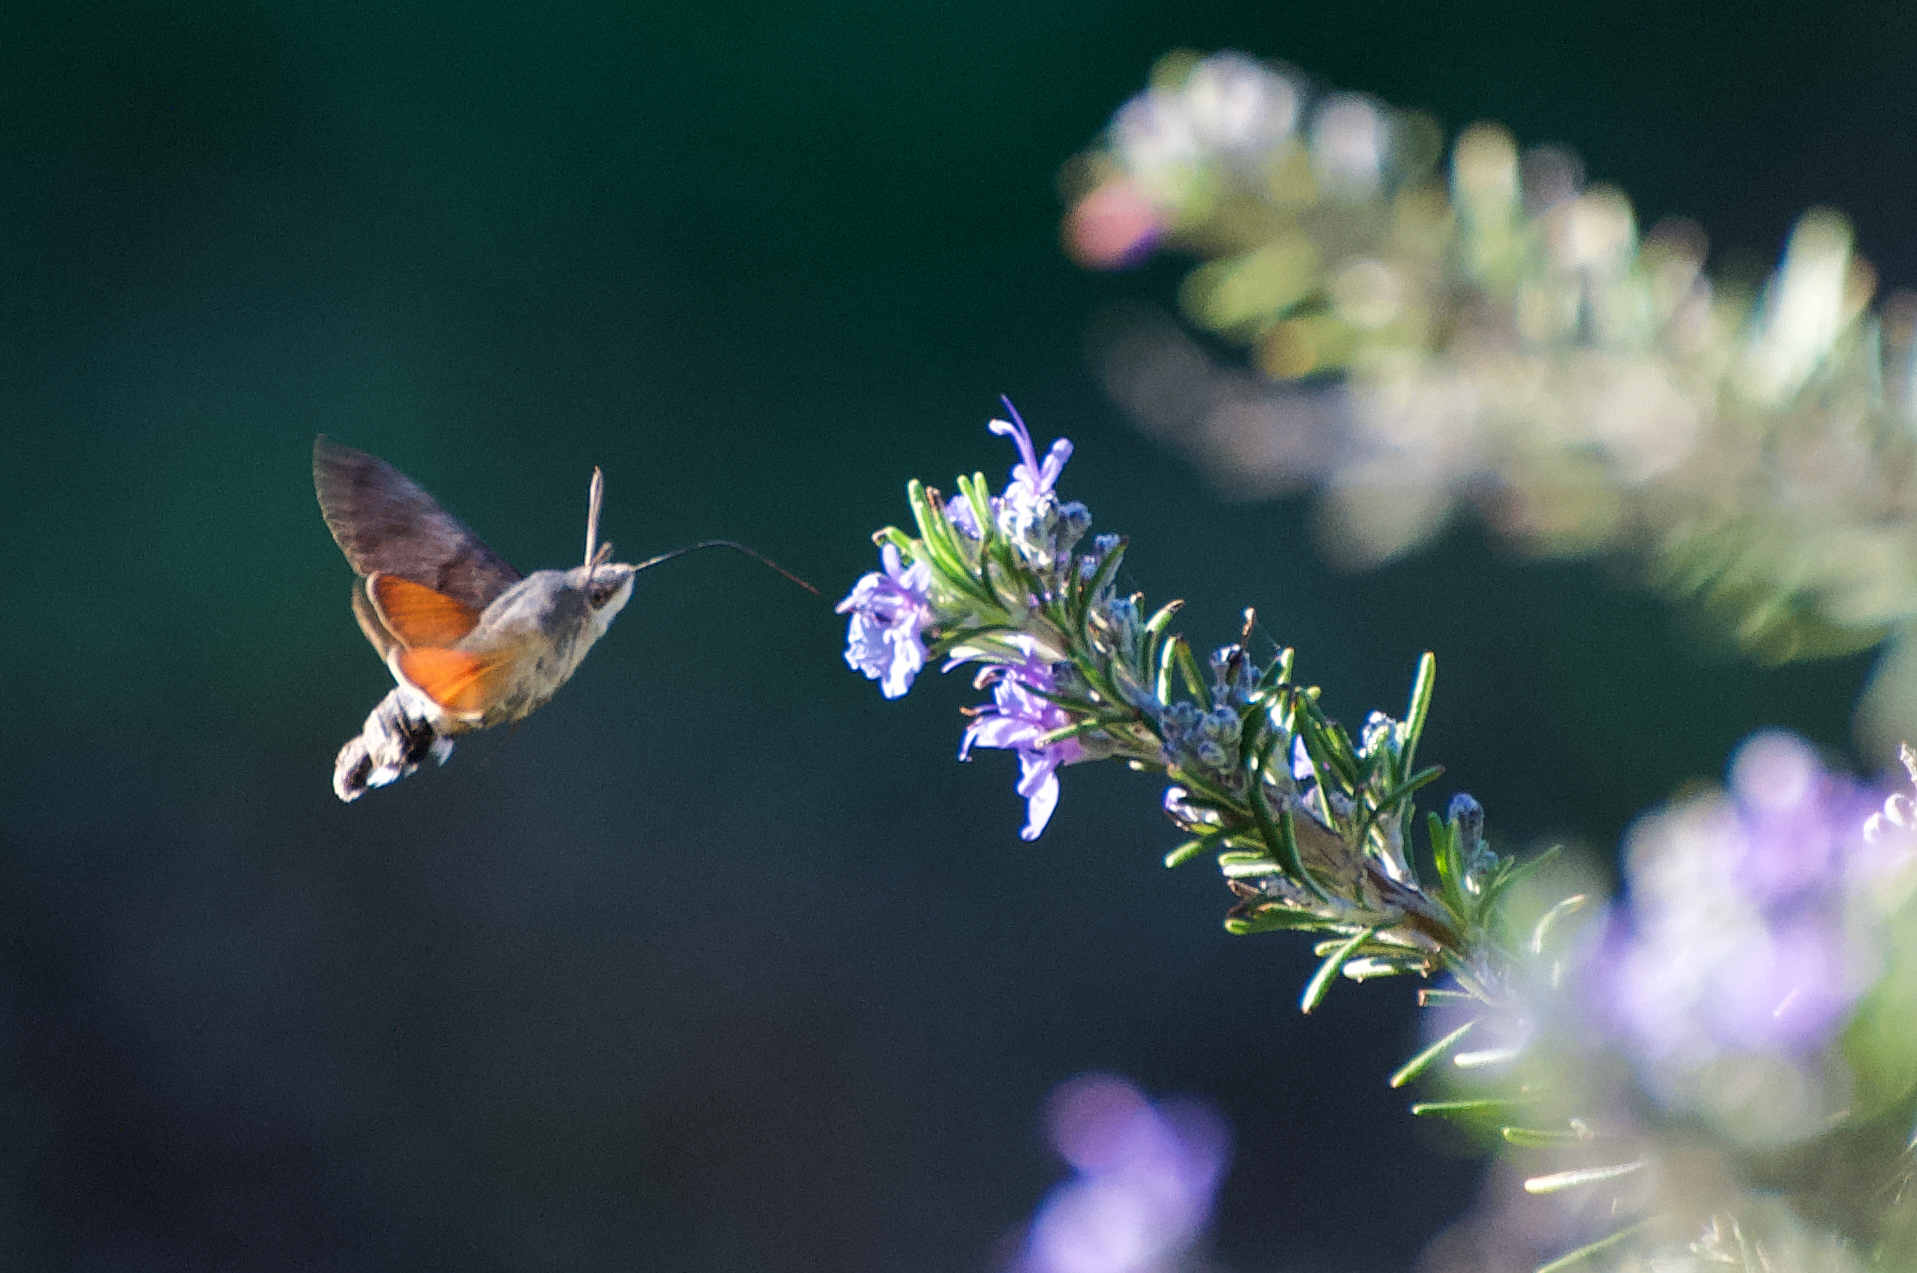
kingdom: Animalia
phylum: Arthropoda
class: Insecta
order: Lepidoptera
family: Sphingidae
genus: Macroglossum
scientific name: Macroglossum stellatarum
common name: Humming-bird hawk-moth
